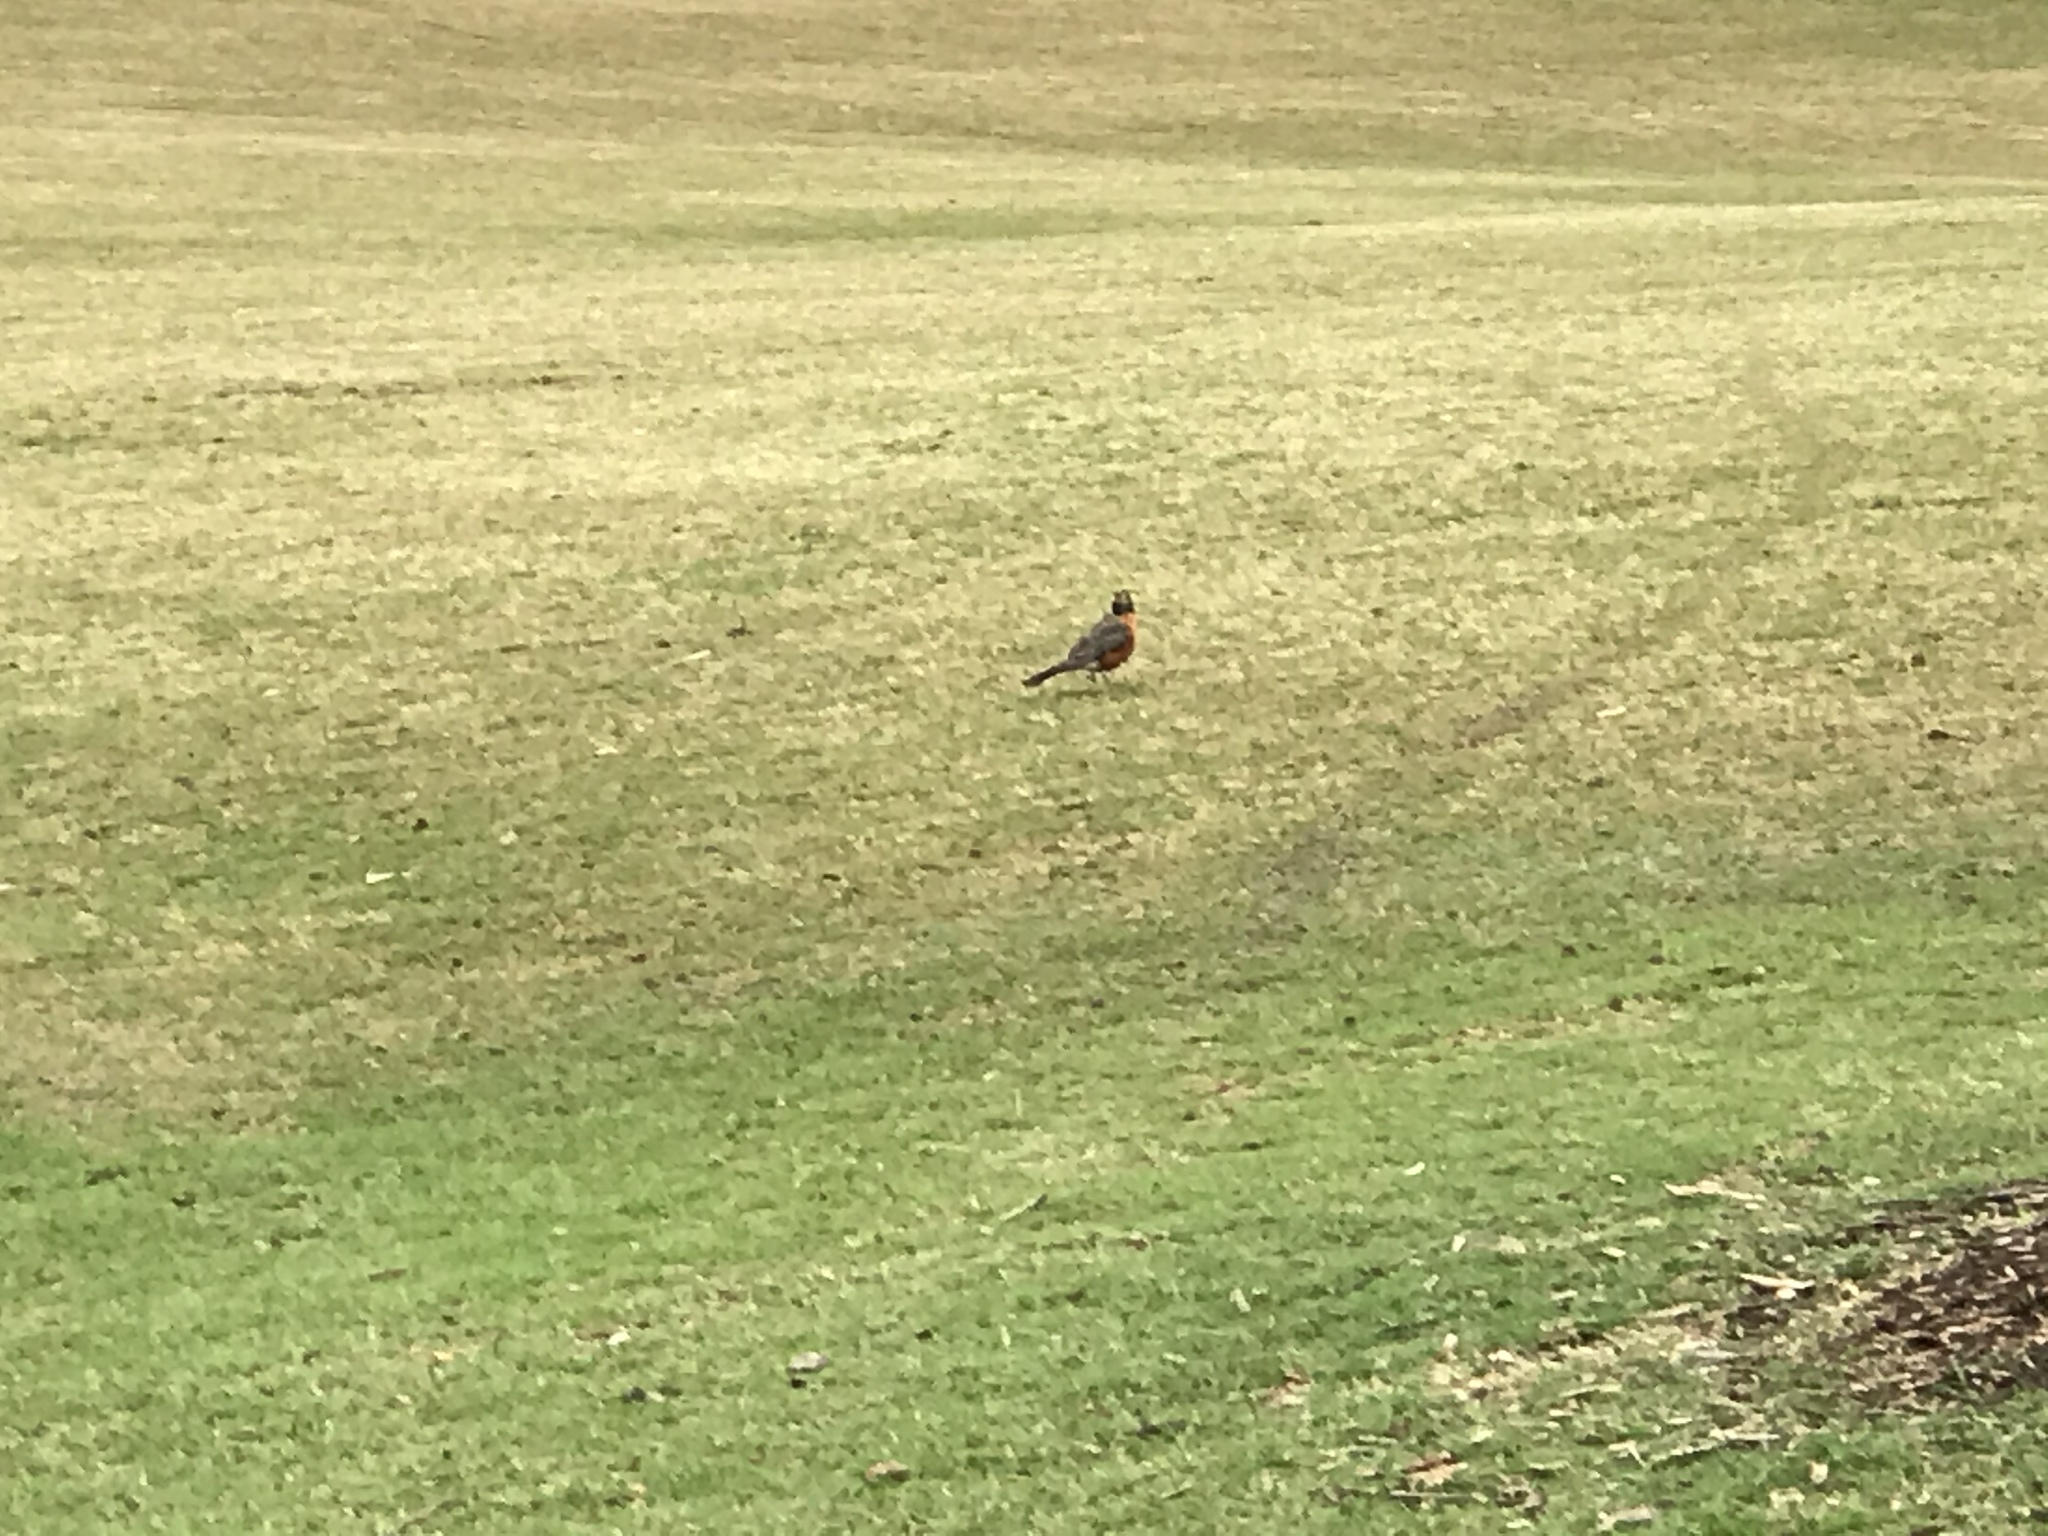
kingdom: Animalia
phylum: Chordata
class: Aves
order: Passeriformes
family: Turdidae
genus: Turdus
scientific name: Turdus migratorius
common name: American robin
